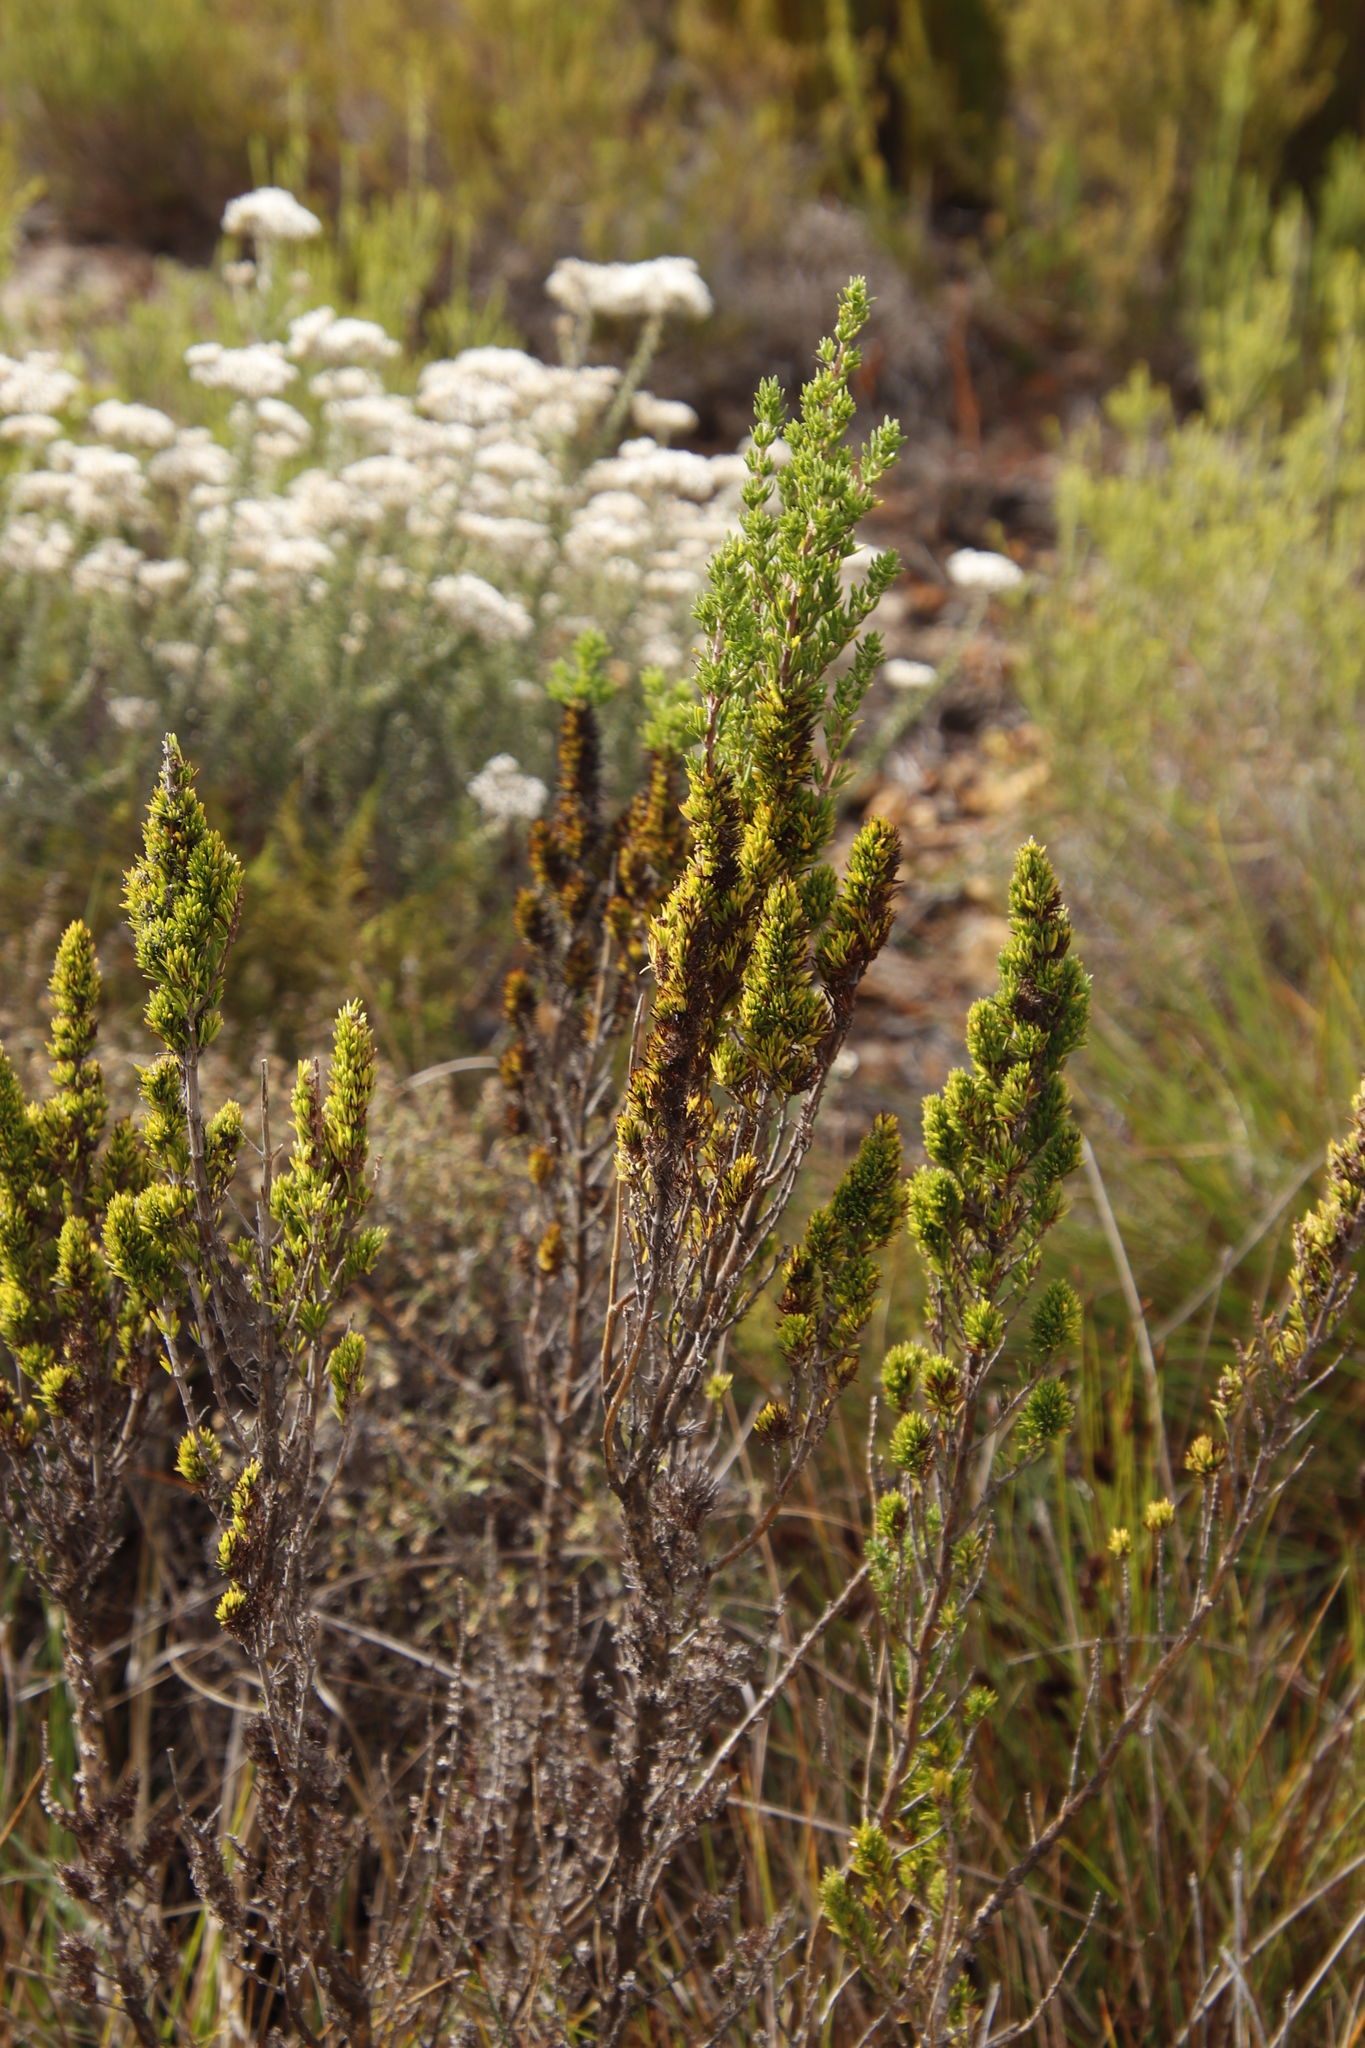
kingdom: Plantae
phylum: Tracheophyta
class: Magnoliopsida
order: Gentianales
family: Rubiaceae
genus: Anthospermum
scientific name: Anthospermum aethiopicum
